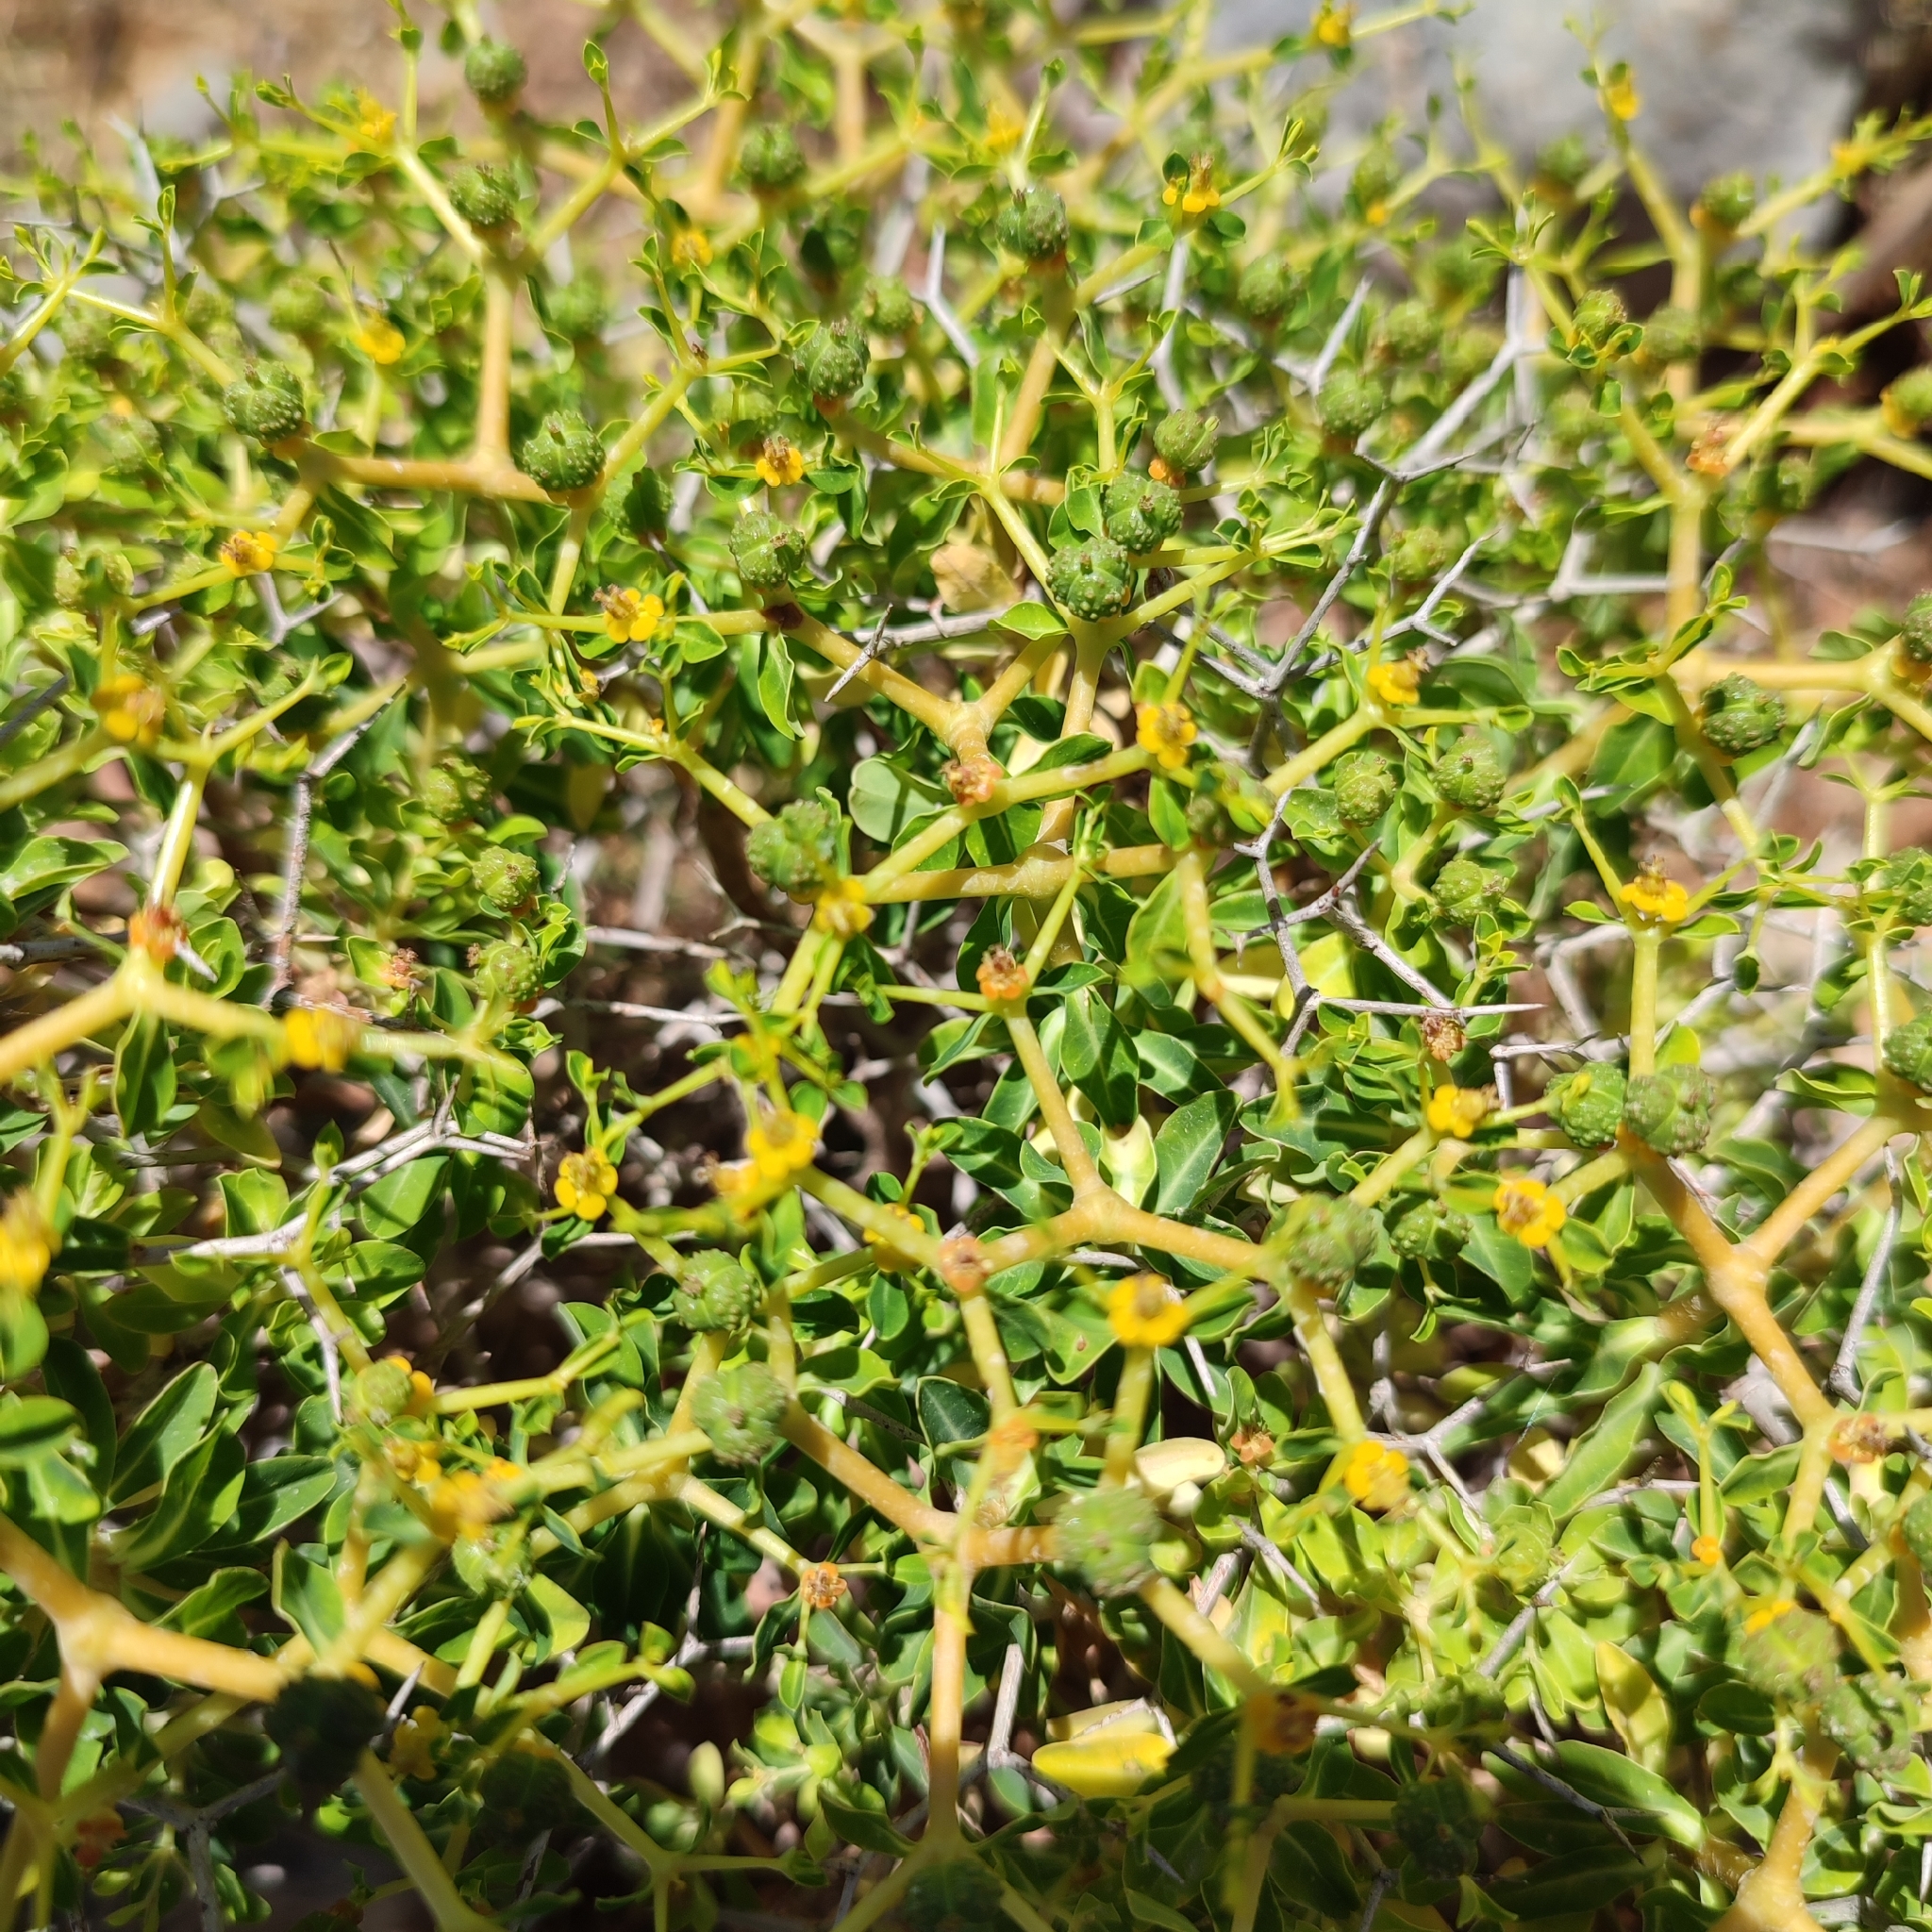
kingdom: Plantae
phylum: Tracheophyta
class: Magnoliopsida
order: Malpighiales
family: Euphorbiaceae
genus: Euphorbia
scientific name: Euphorbia acanthothamnos
